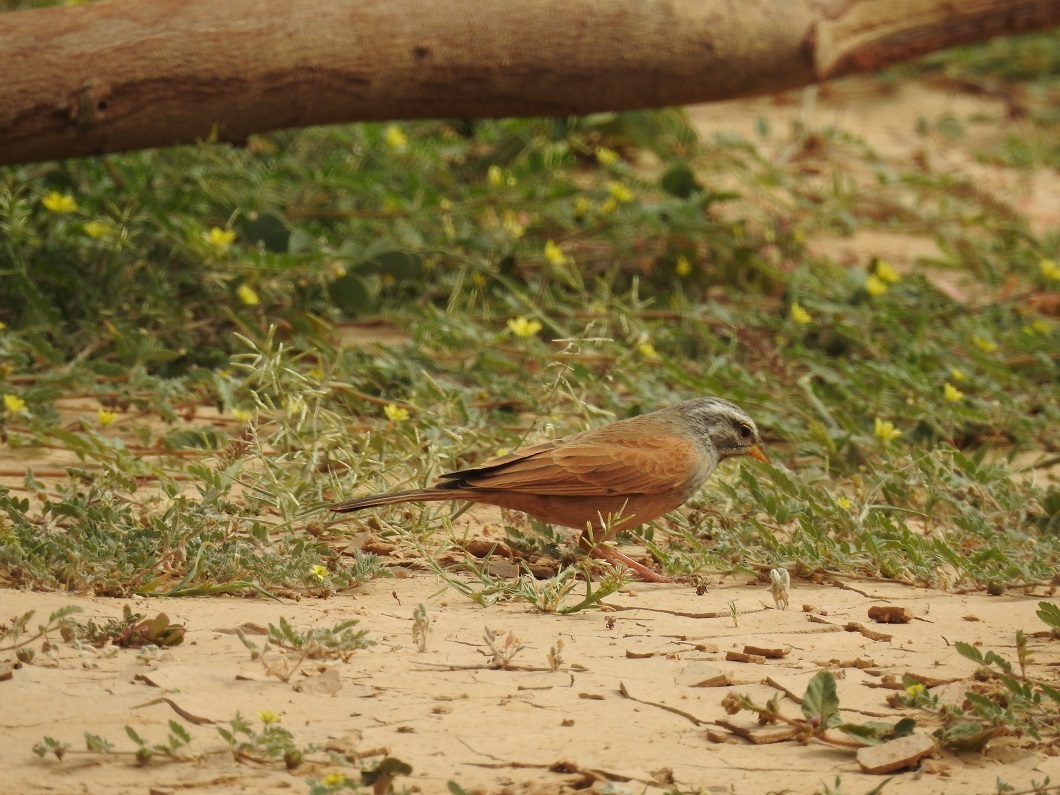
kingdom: Animalia
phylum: Chordata
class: Aves
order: Passeriformes
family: Emberizidae
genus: Emberiza
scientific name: Emberiza sahari
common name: House bunting
